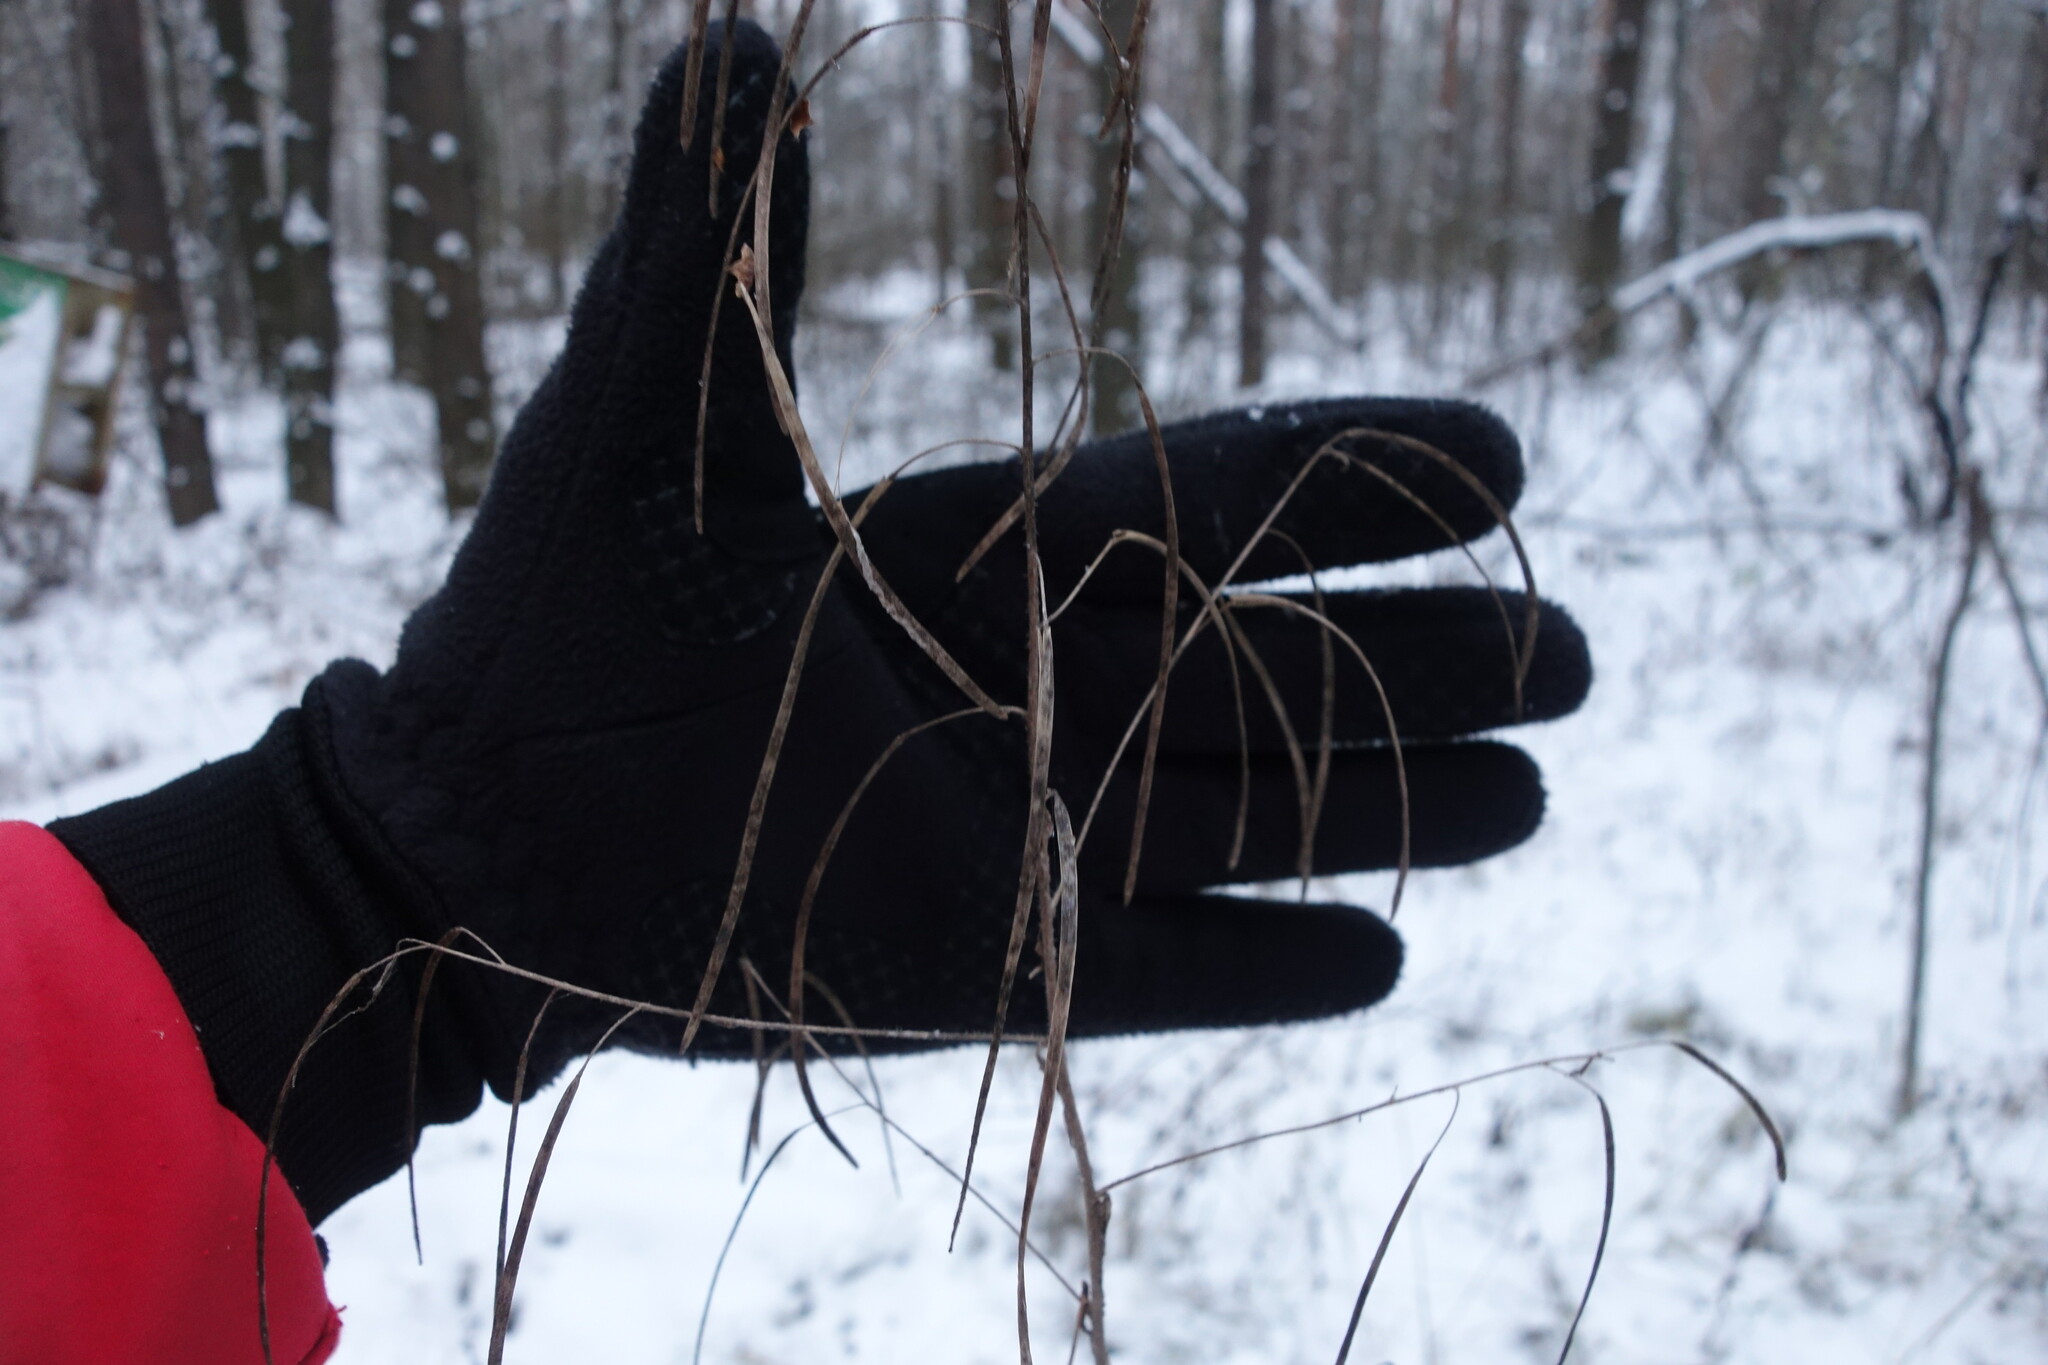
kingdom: Plantae
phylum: Tracheophyta
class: Magnoliopsida
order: Brassicales
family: Brassicaceae
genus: Catolobus
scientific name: Catolobus pendulus
